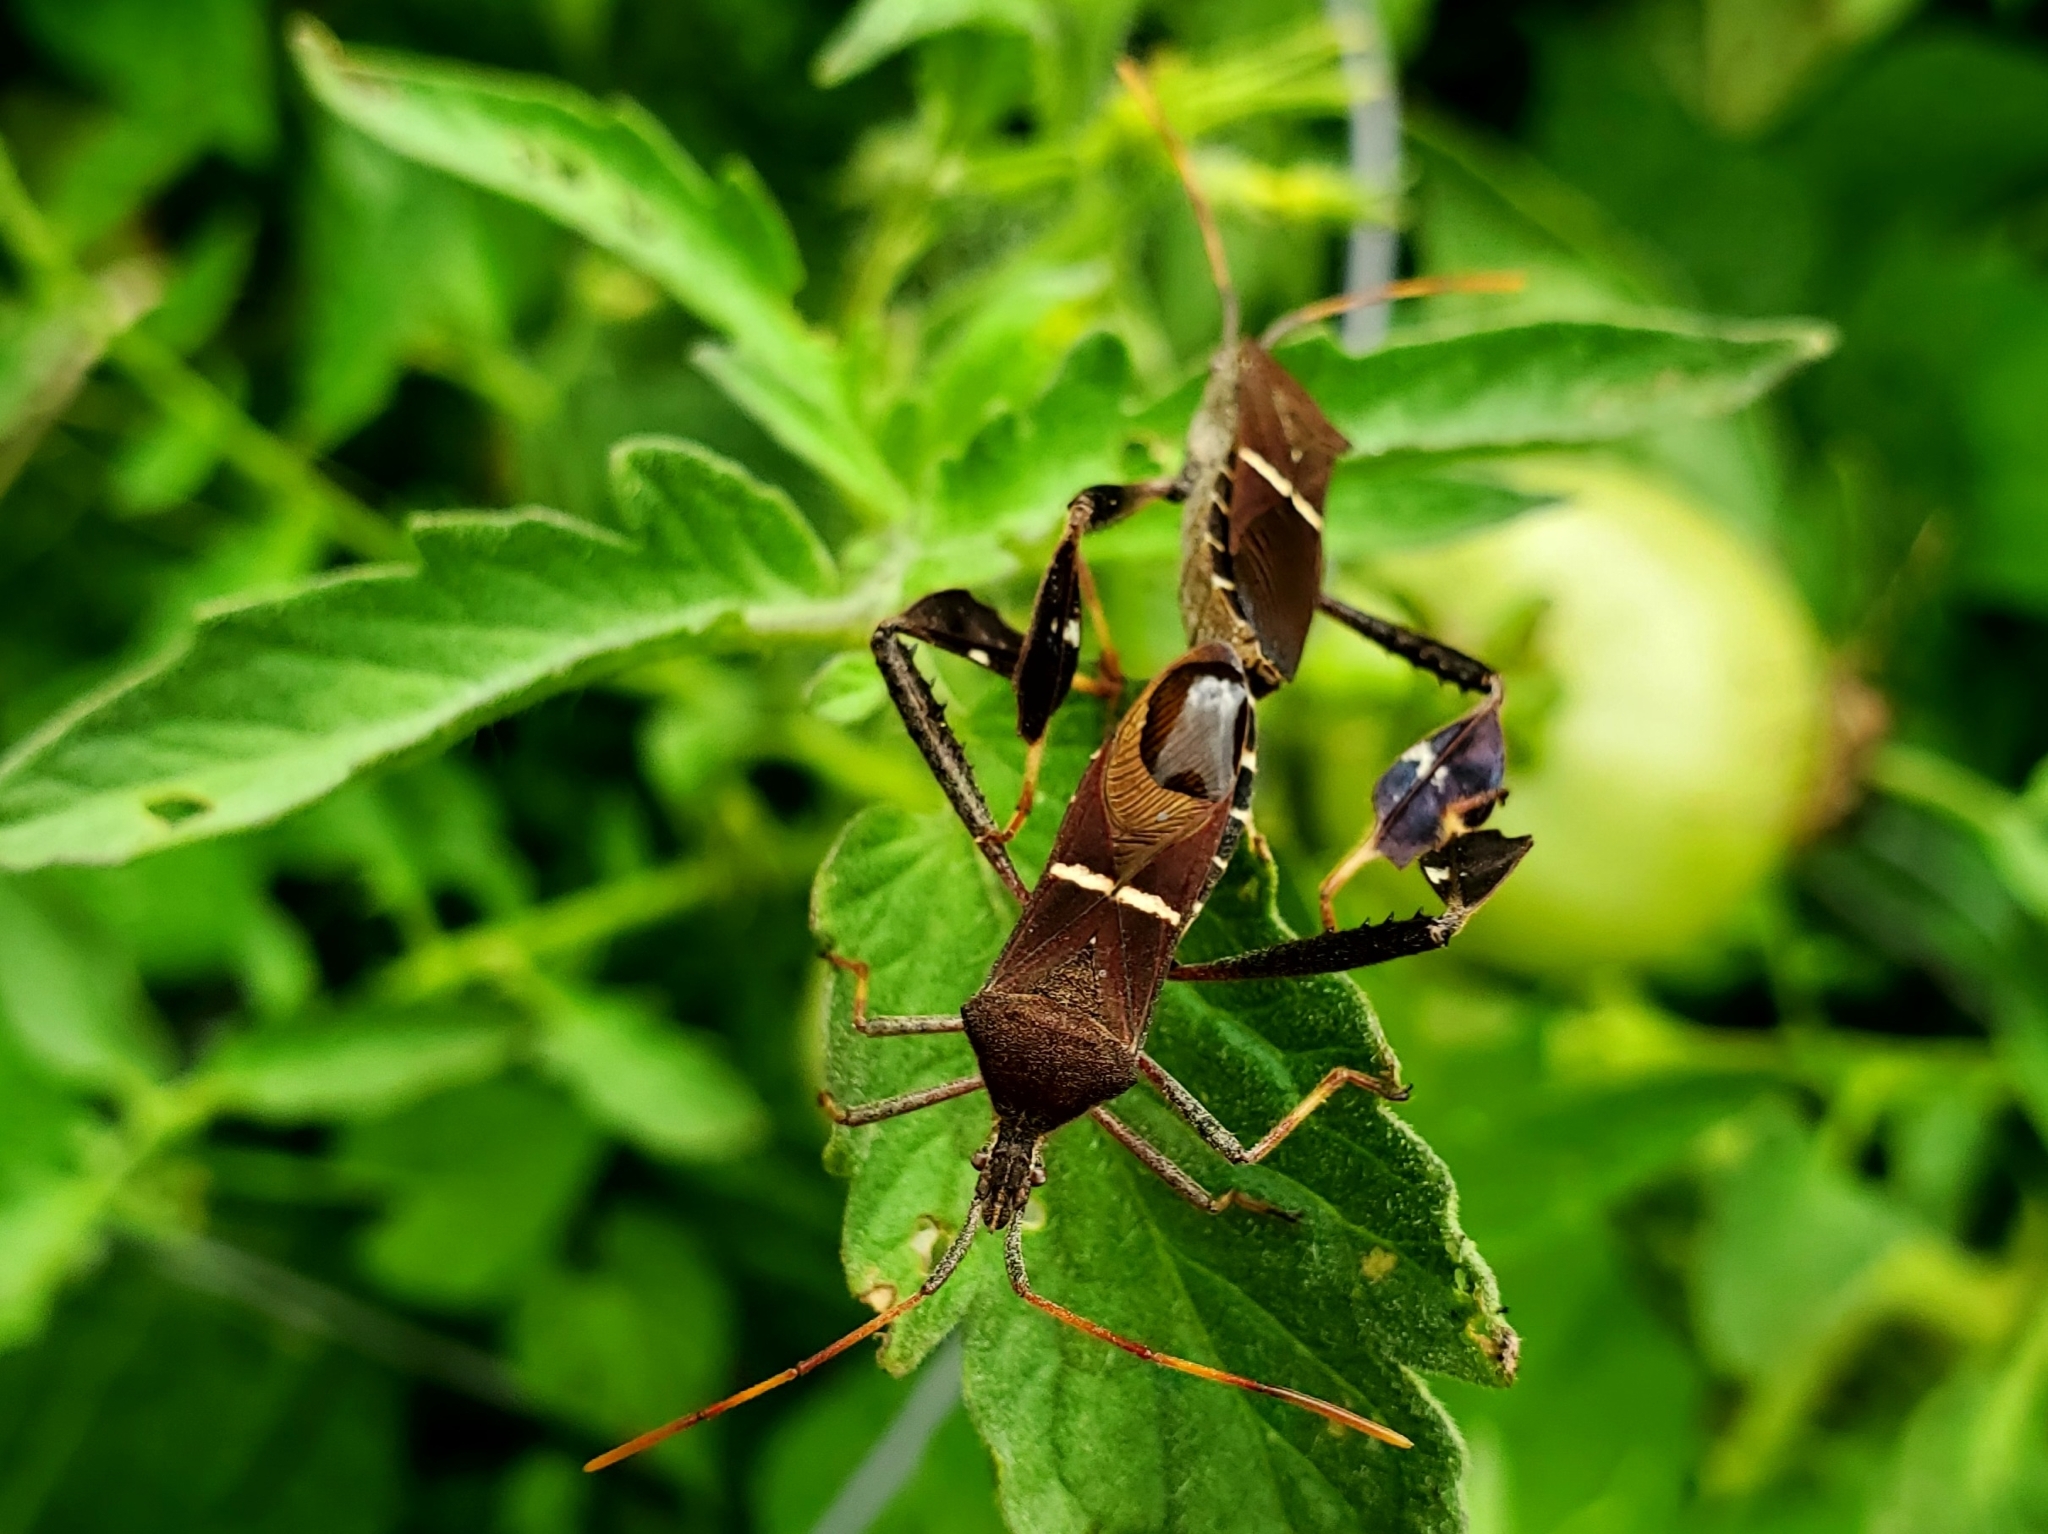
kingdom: Animalia
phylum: Arthropoda
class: Insecta
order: Hemiptera
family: Coreidae
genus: Leptoglossus
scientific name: Leptoglossus phyllopus
